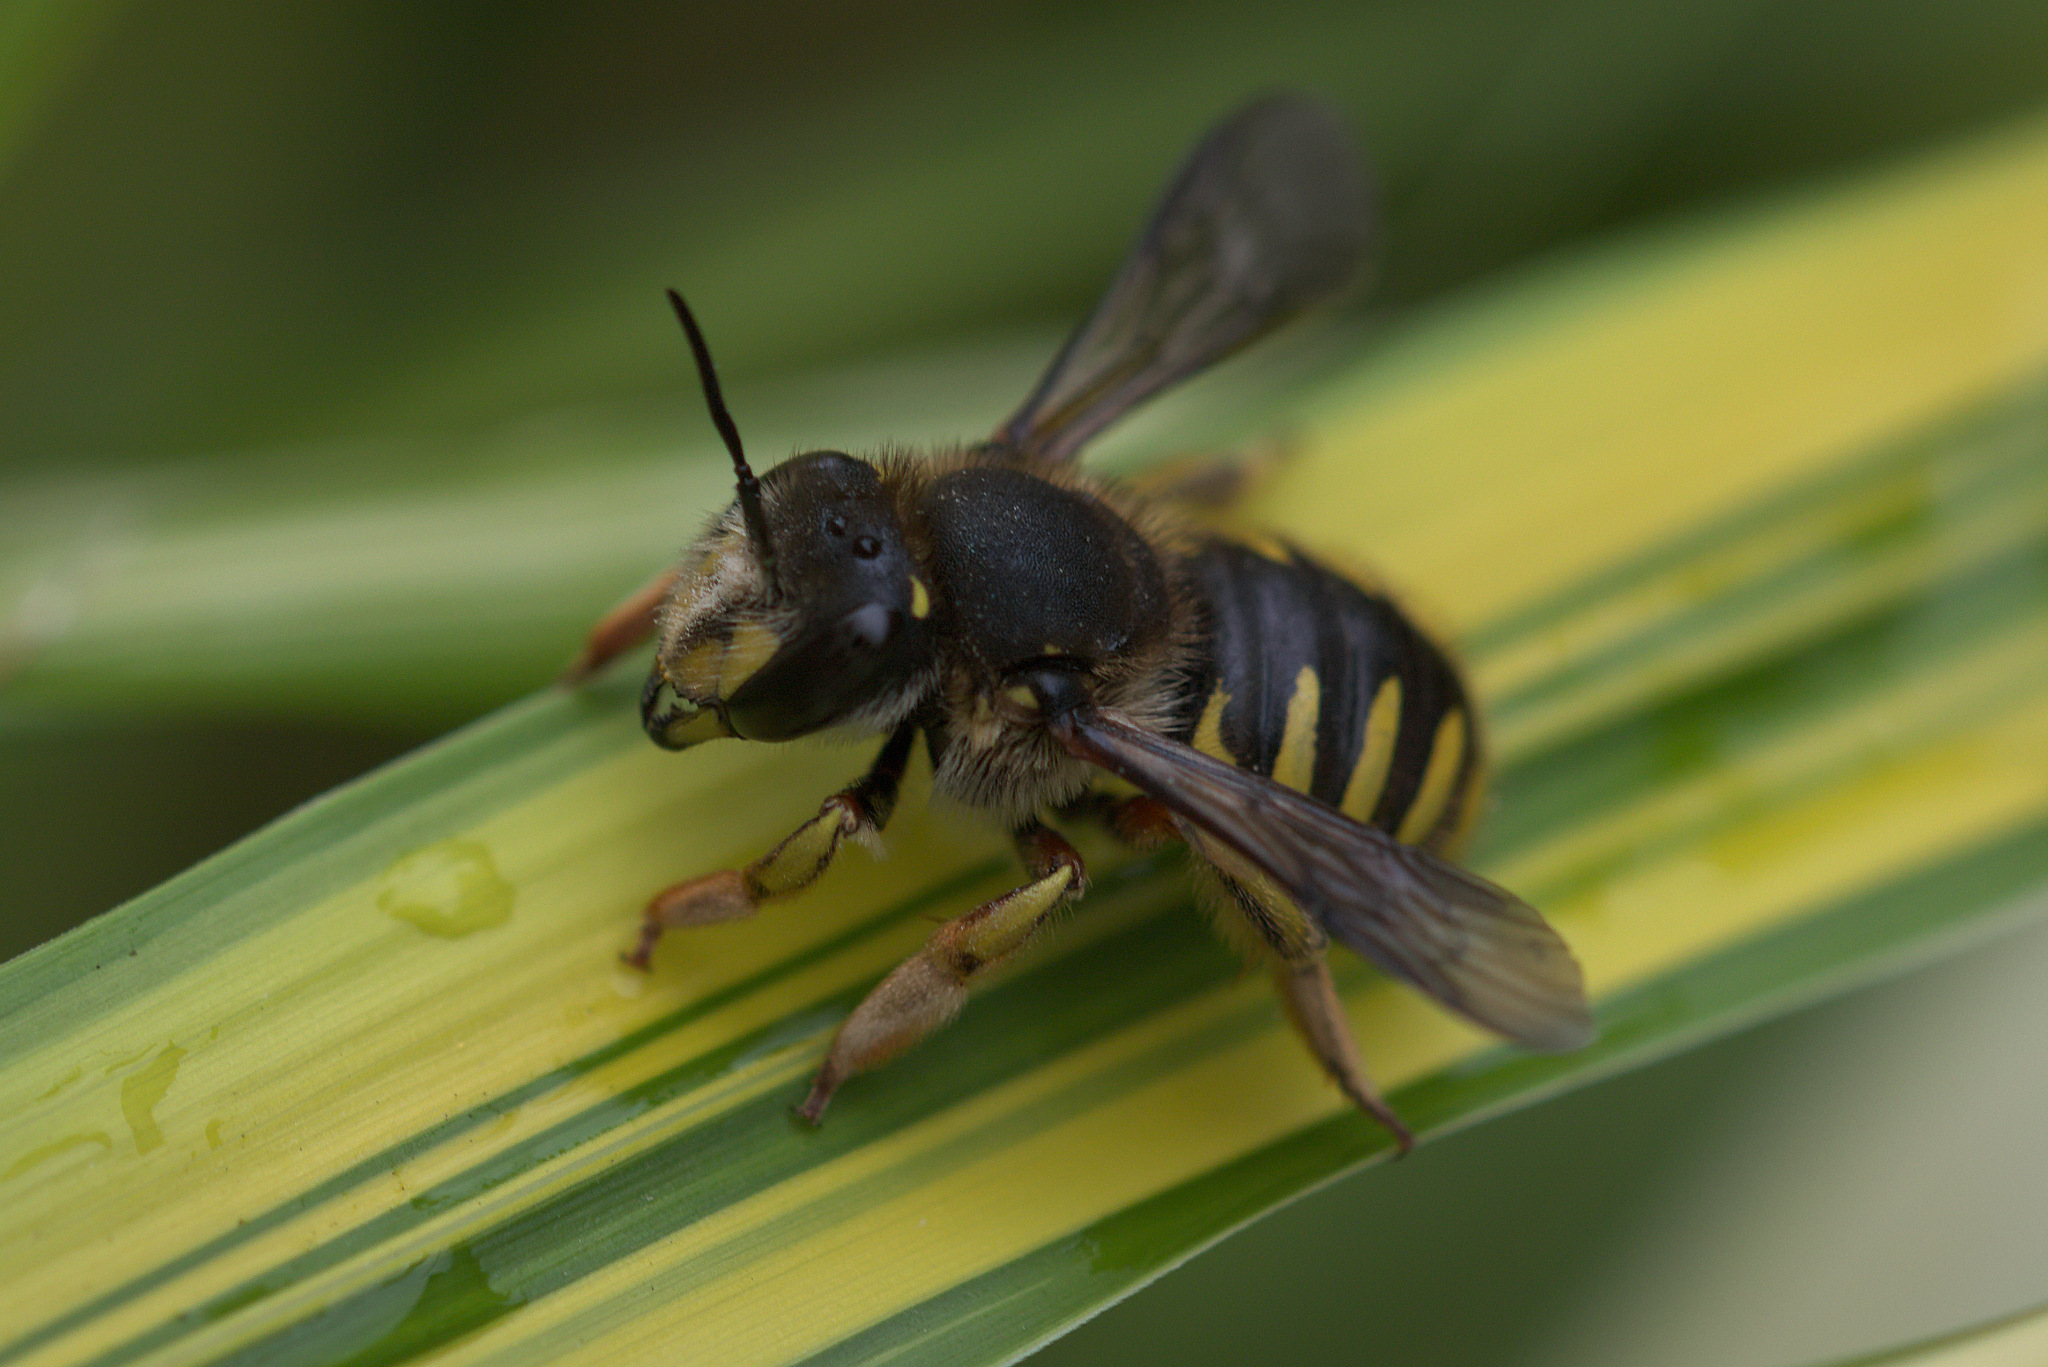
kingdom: Animalia
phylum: Arthropoda
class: Insecta
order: Hymenoptera
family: Megachilidae
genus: Anthidium
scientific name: Anthidium manicatum
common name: Wool carder bee
